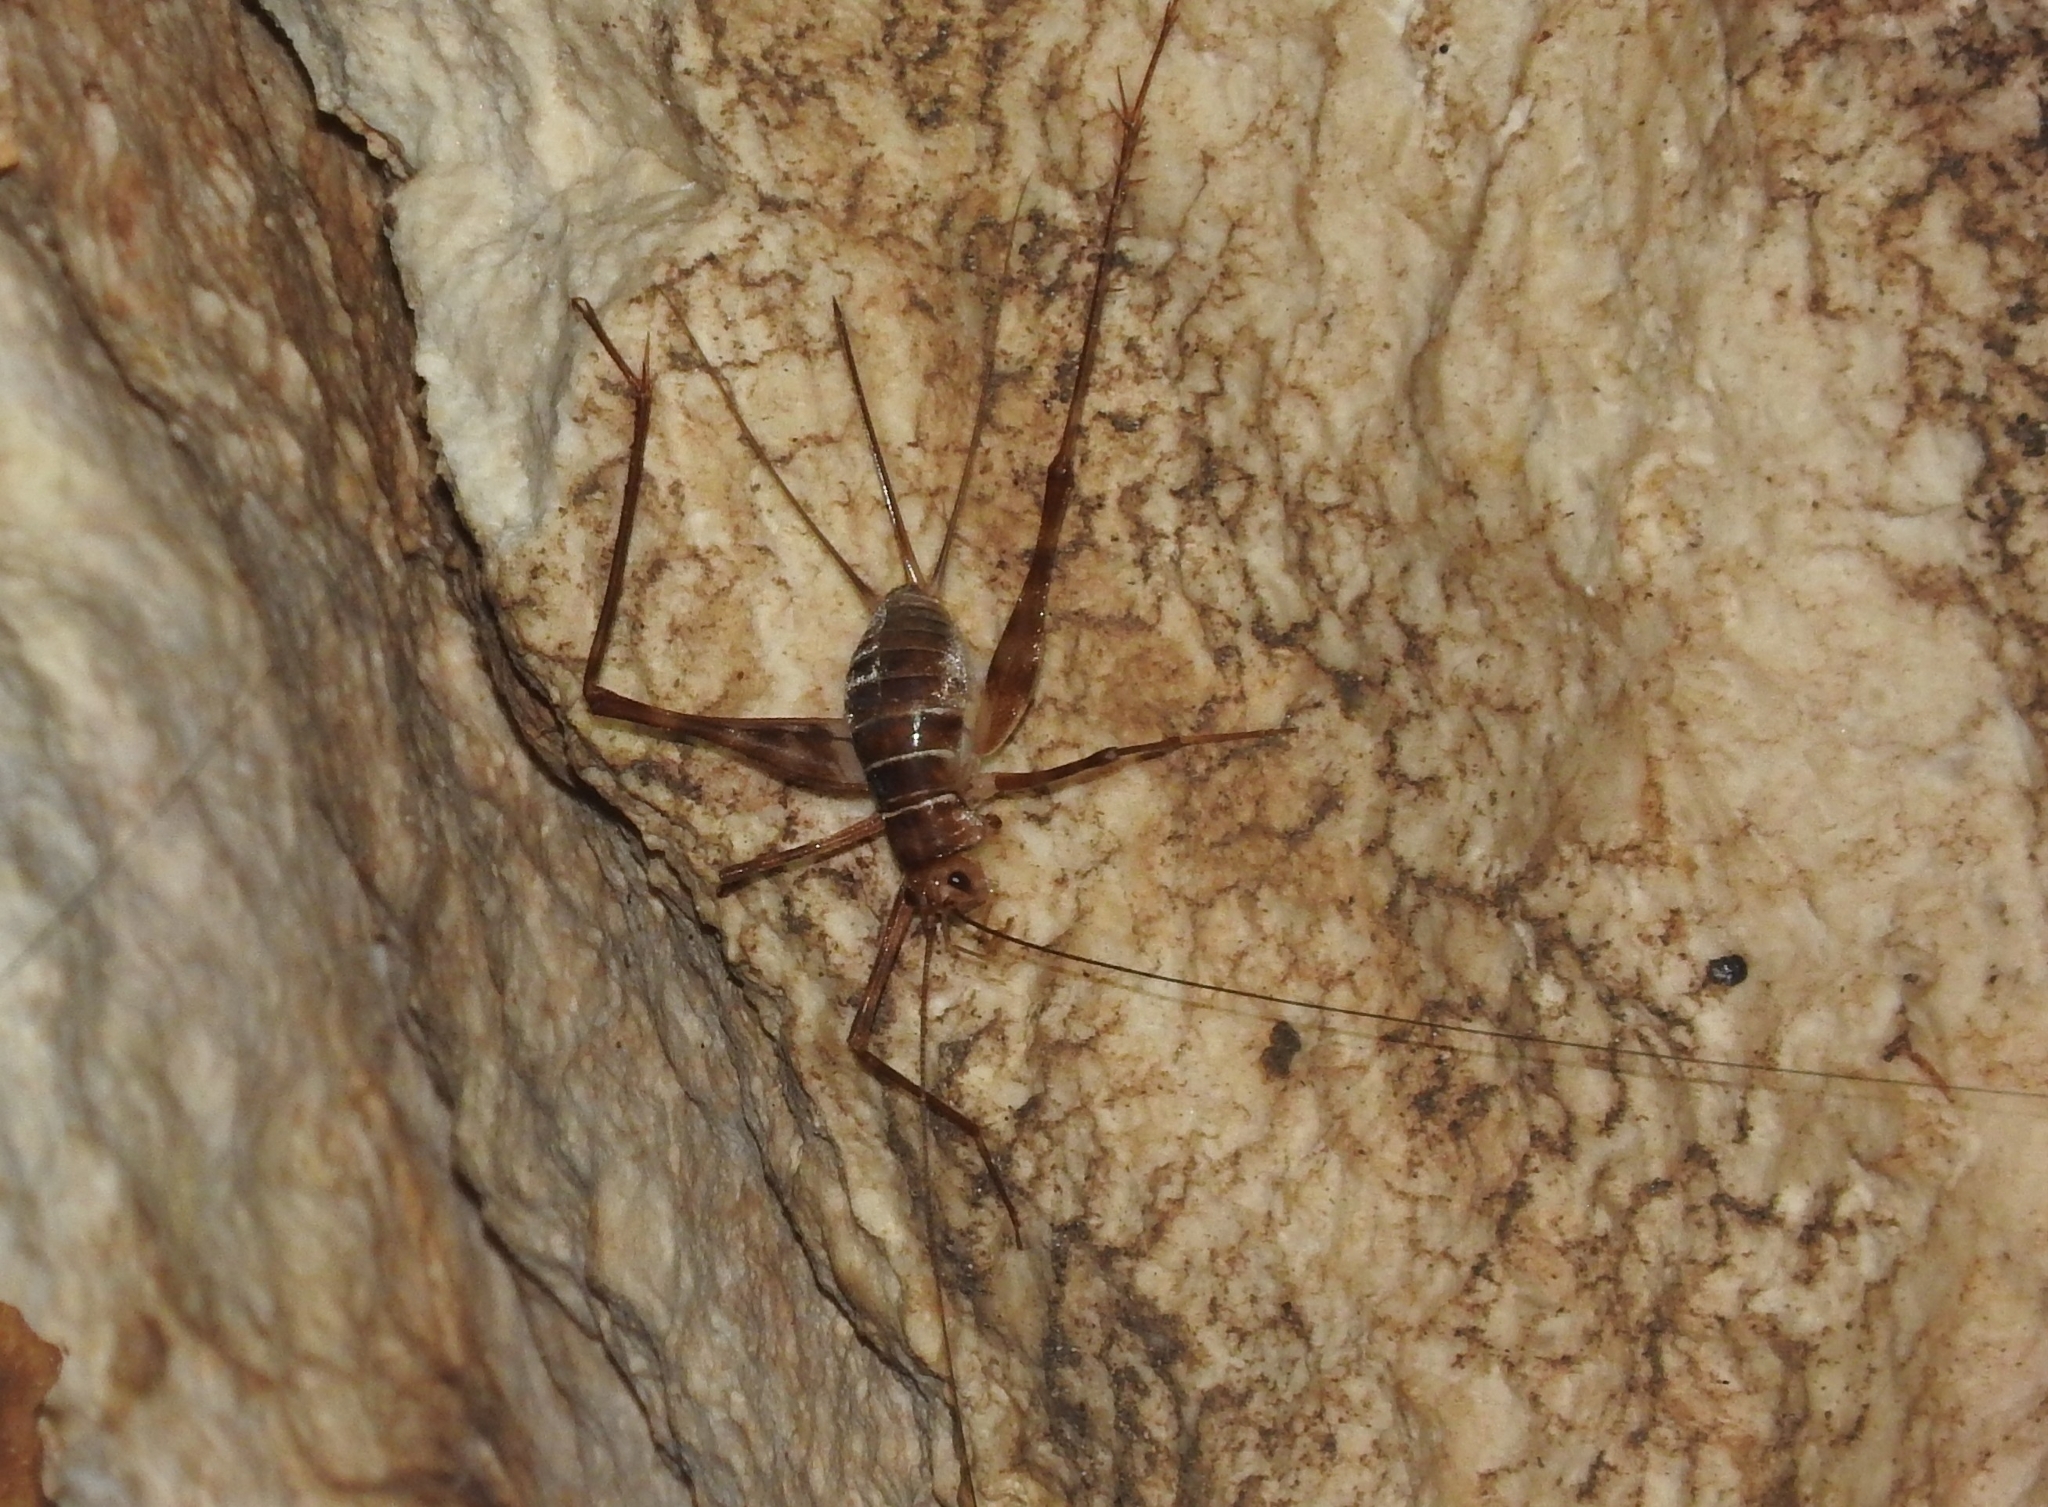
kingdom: Animalia
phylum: Arthropoda
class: Insecta
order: Orthoptera
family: Phalangopsidae
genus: Mayagryllus
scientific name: Mayagryllus yucatanus
